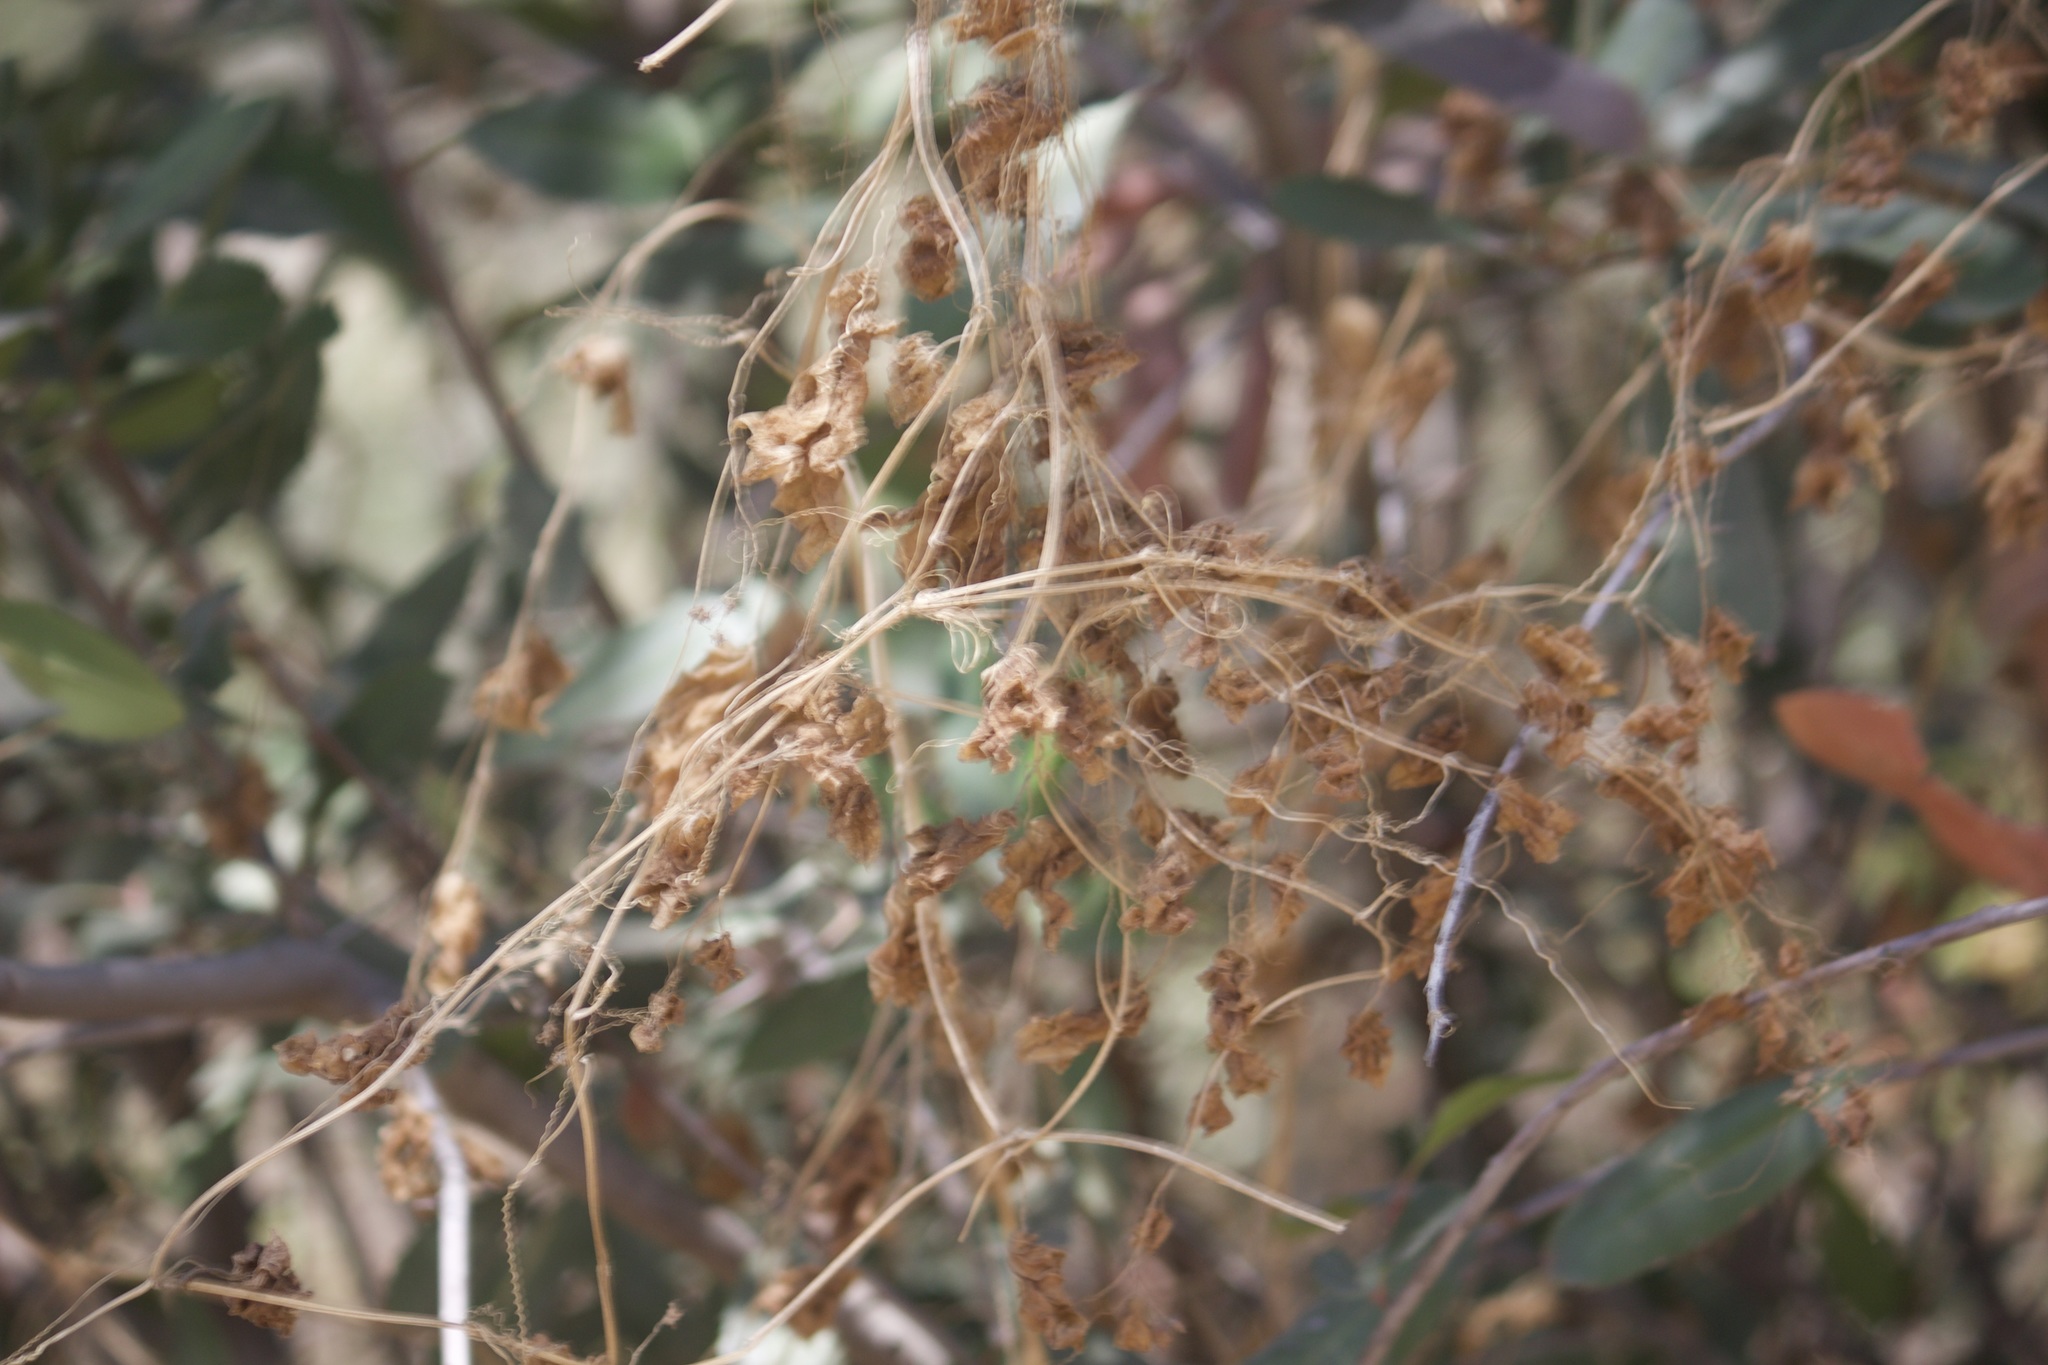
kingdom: Plantae
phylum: Tracheophyta
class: Magnoliopsida
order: Cucurbitales
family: Cucurbitaceae
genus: Marah
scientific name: Marah macrocarpa
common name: Cucamonga manroot
